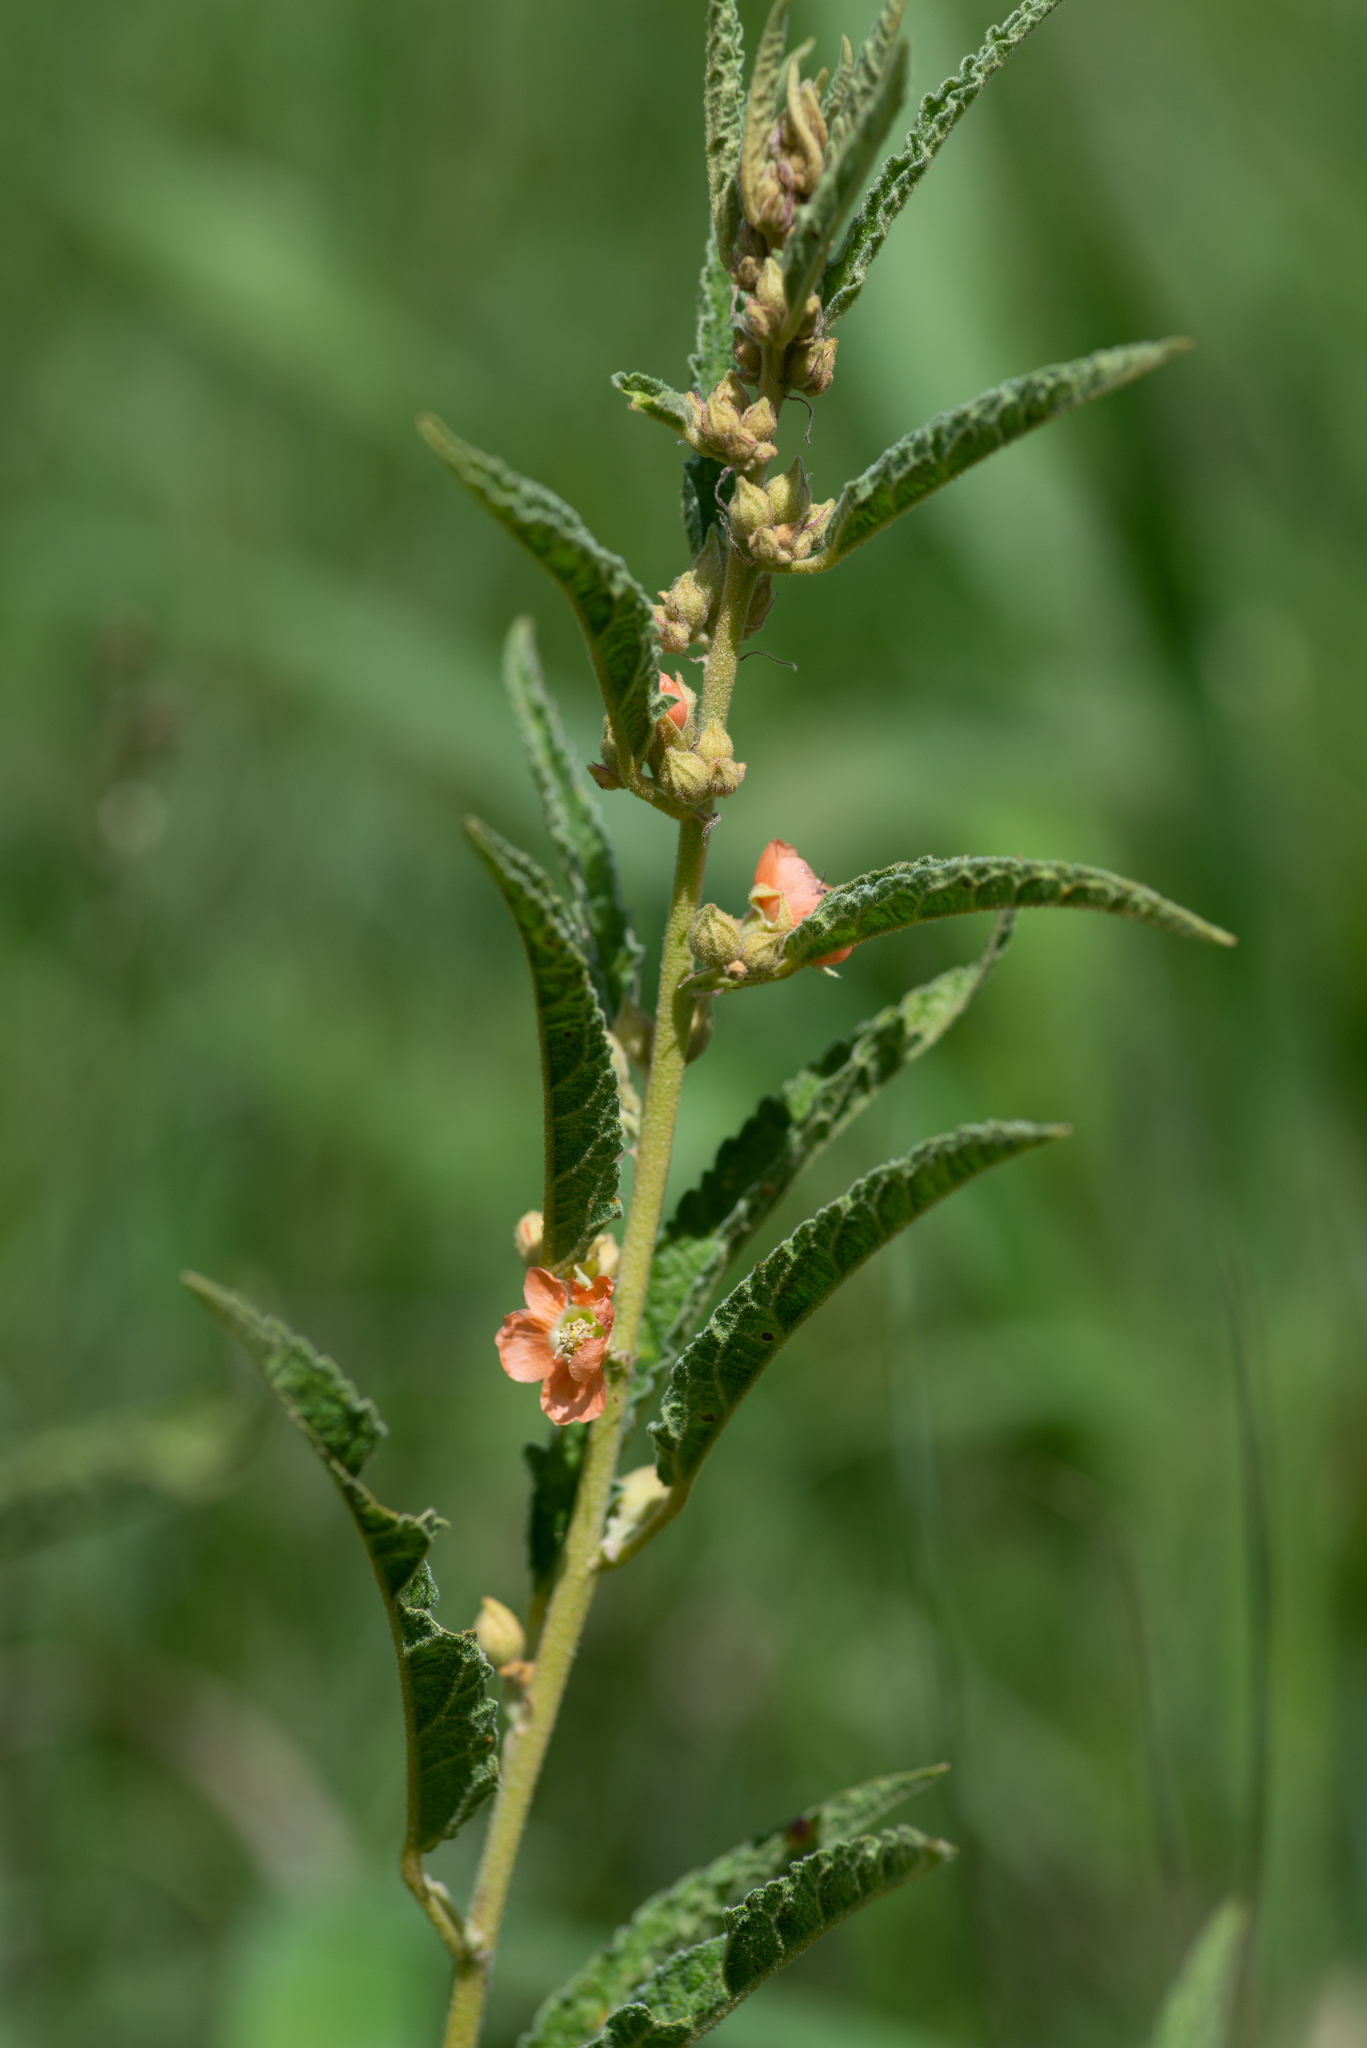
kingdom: Plantae
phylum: Tracheophyta
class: Magnoliopsida
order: Malvales
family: Malvaceae
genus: Sphaeralcea
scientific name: Sphaeralcea angustifolia
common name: Copper globe-mallow
